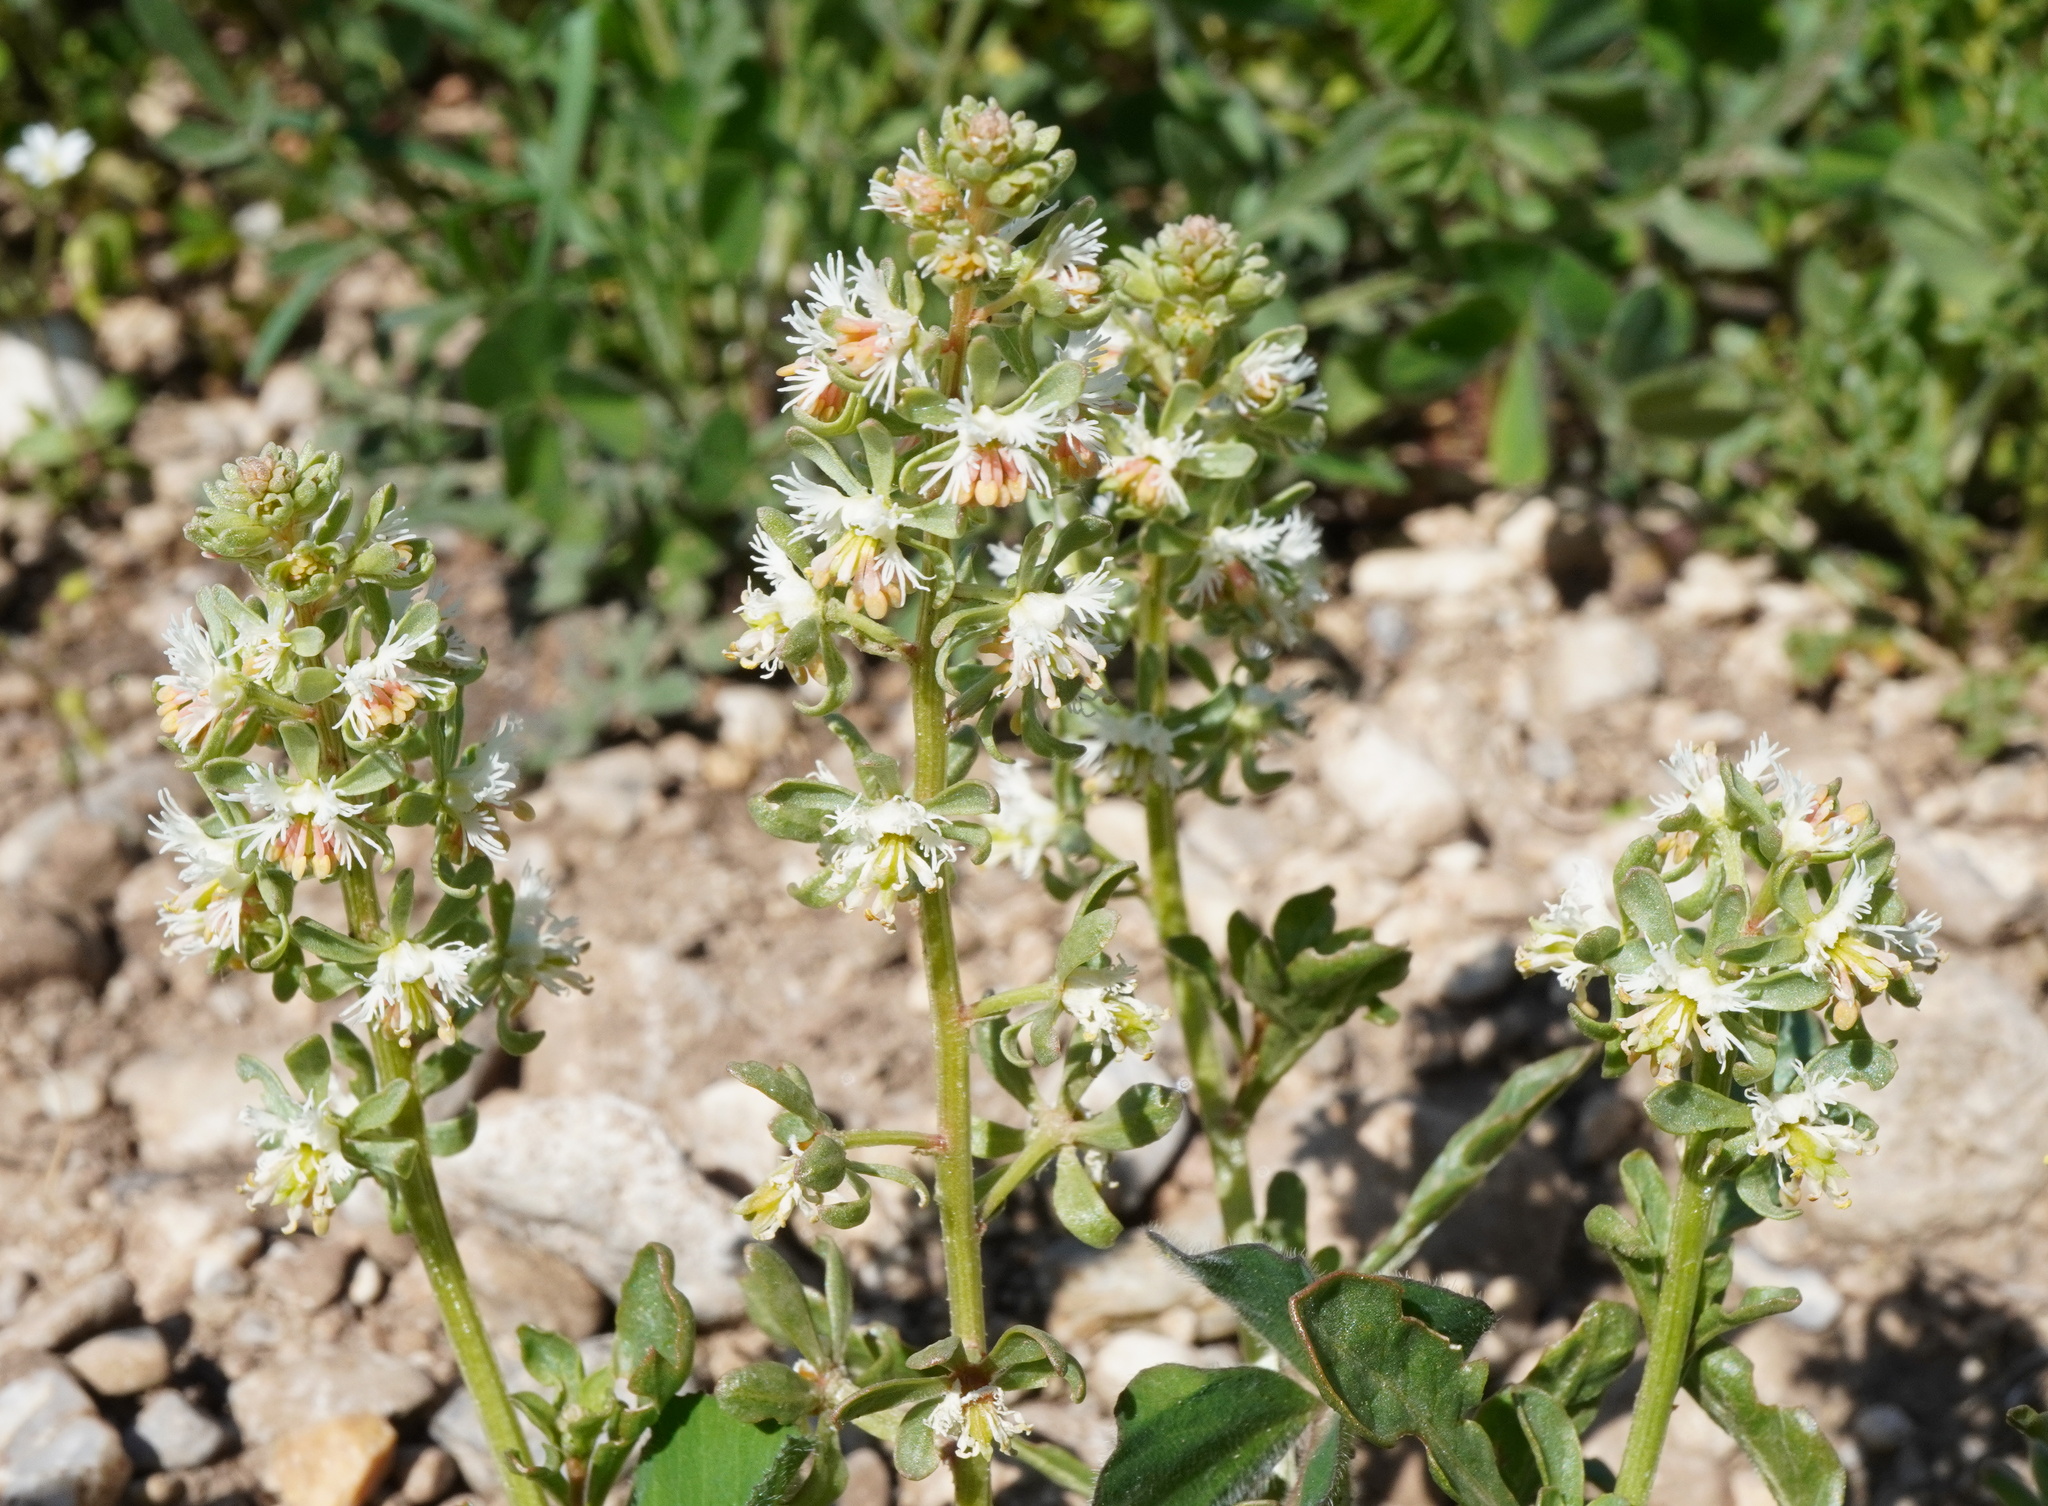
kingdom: Plantae
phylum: Tracheophyta
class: Magnoliopsida
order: Brassicales
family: Resedaceae
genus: Reseda
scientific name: Reseda phyteuma
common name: Corn mignonette
